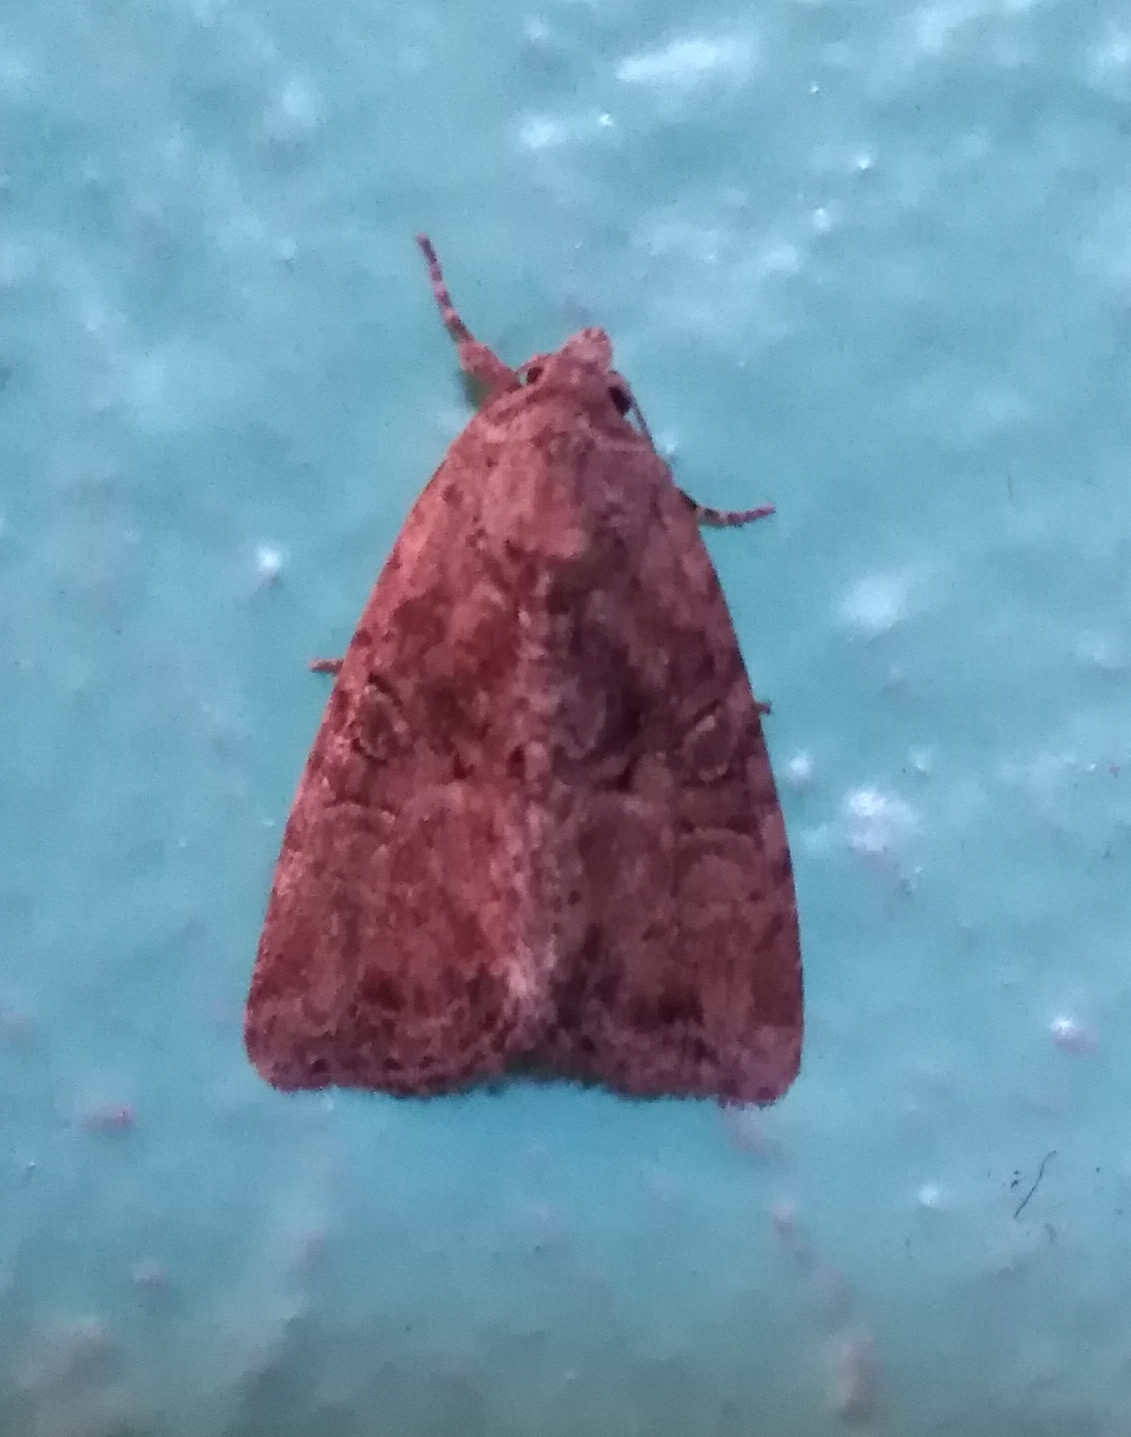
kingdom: Animalia
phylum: Arthropoda
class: Insecta
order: Lepidoptera
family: Noctuidae
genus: Mesoligia
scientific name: Mesoligia furuncula
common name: Cloaked minor
